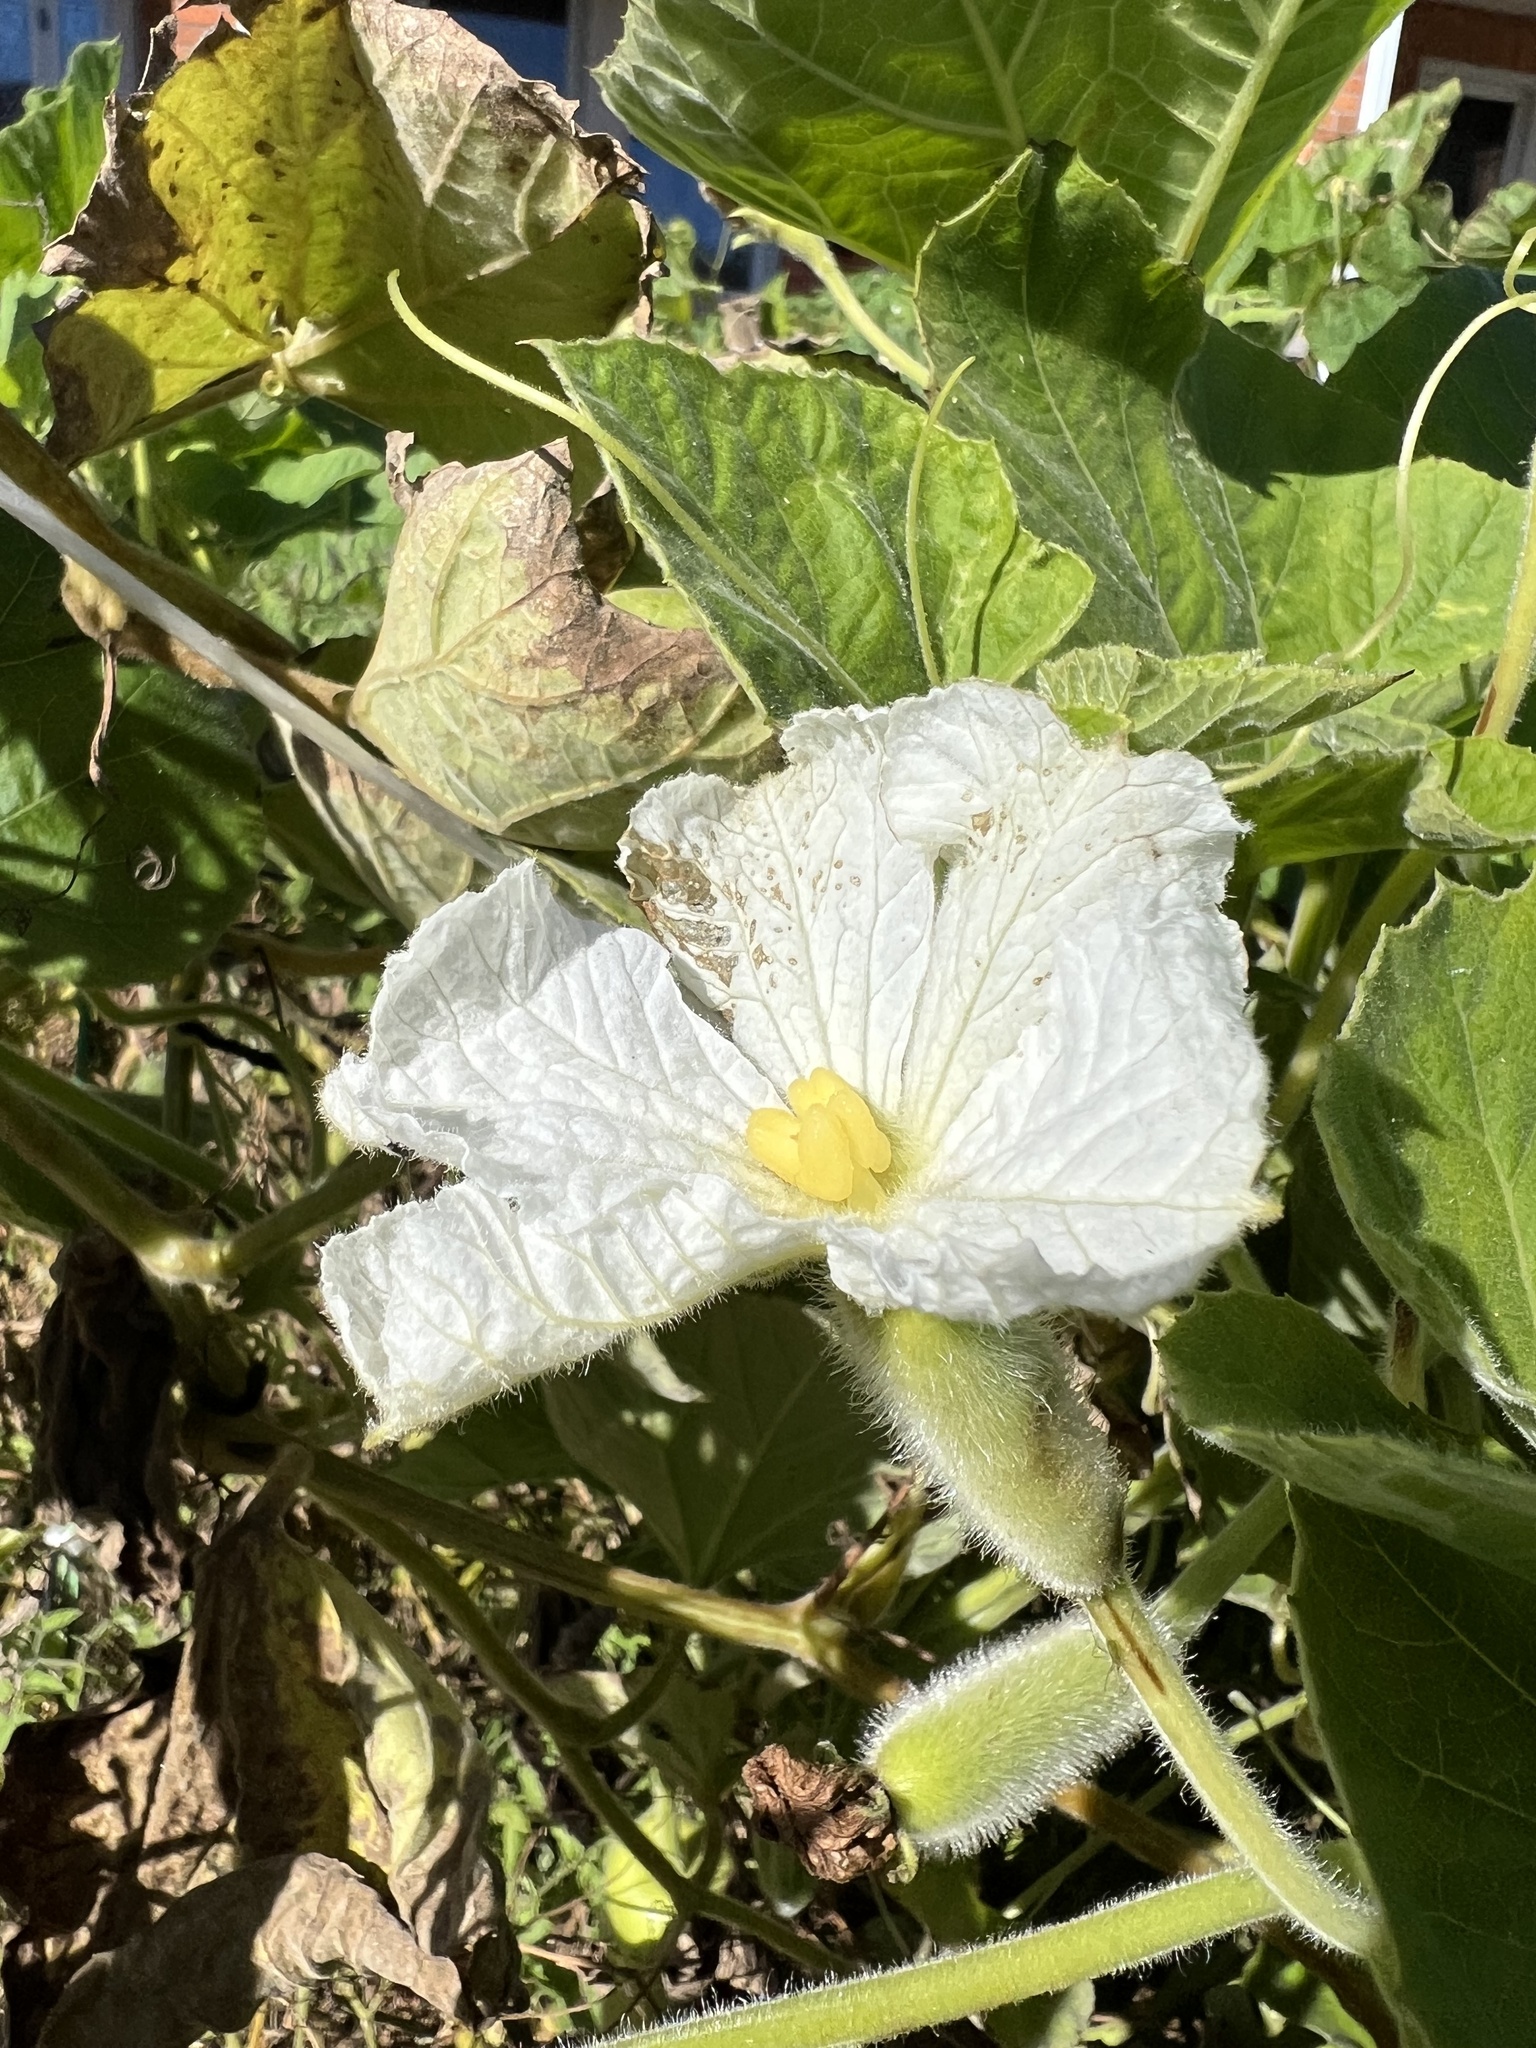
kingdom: Plantae
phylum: Tracheophyta
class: Magnoliopsida
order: Cucurbitales
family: Cucurbitaceae
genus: Lagenaria
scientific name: Lagenaria siceraria
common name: Bottle gourd
